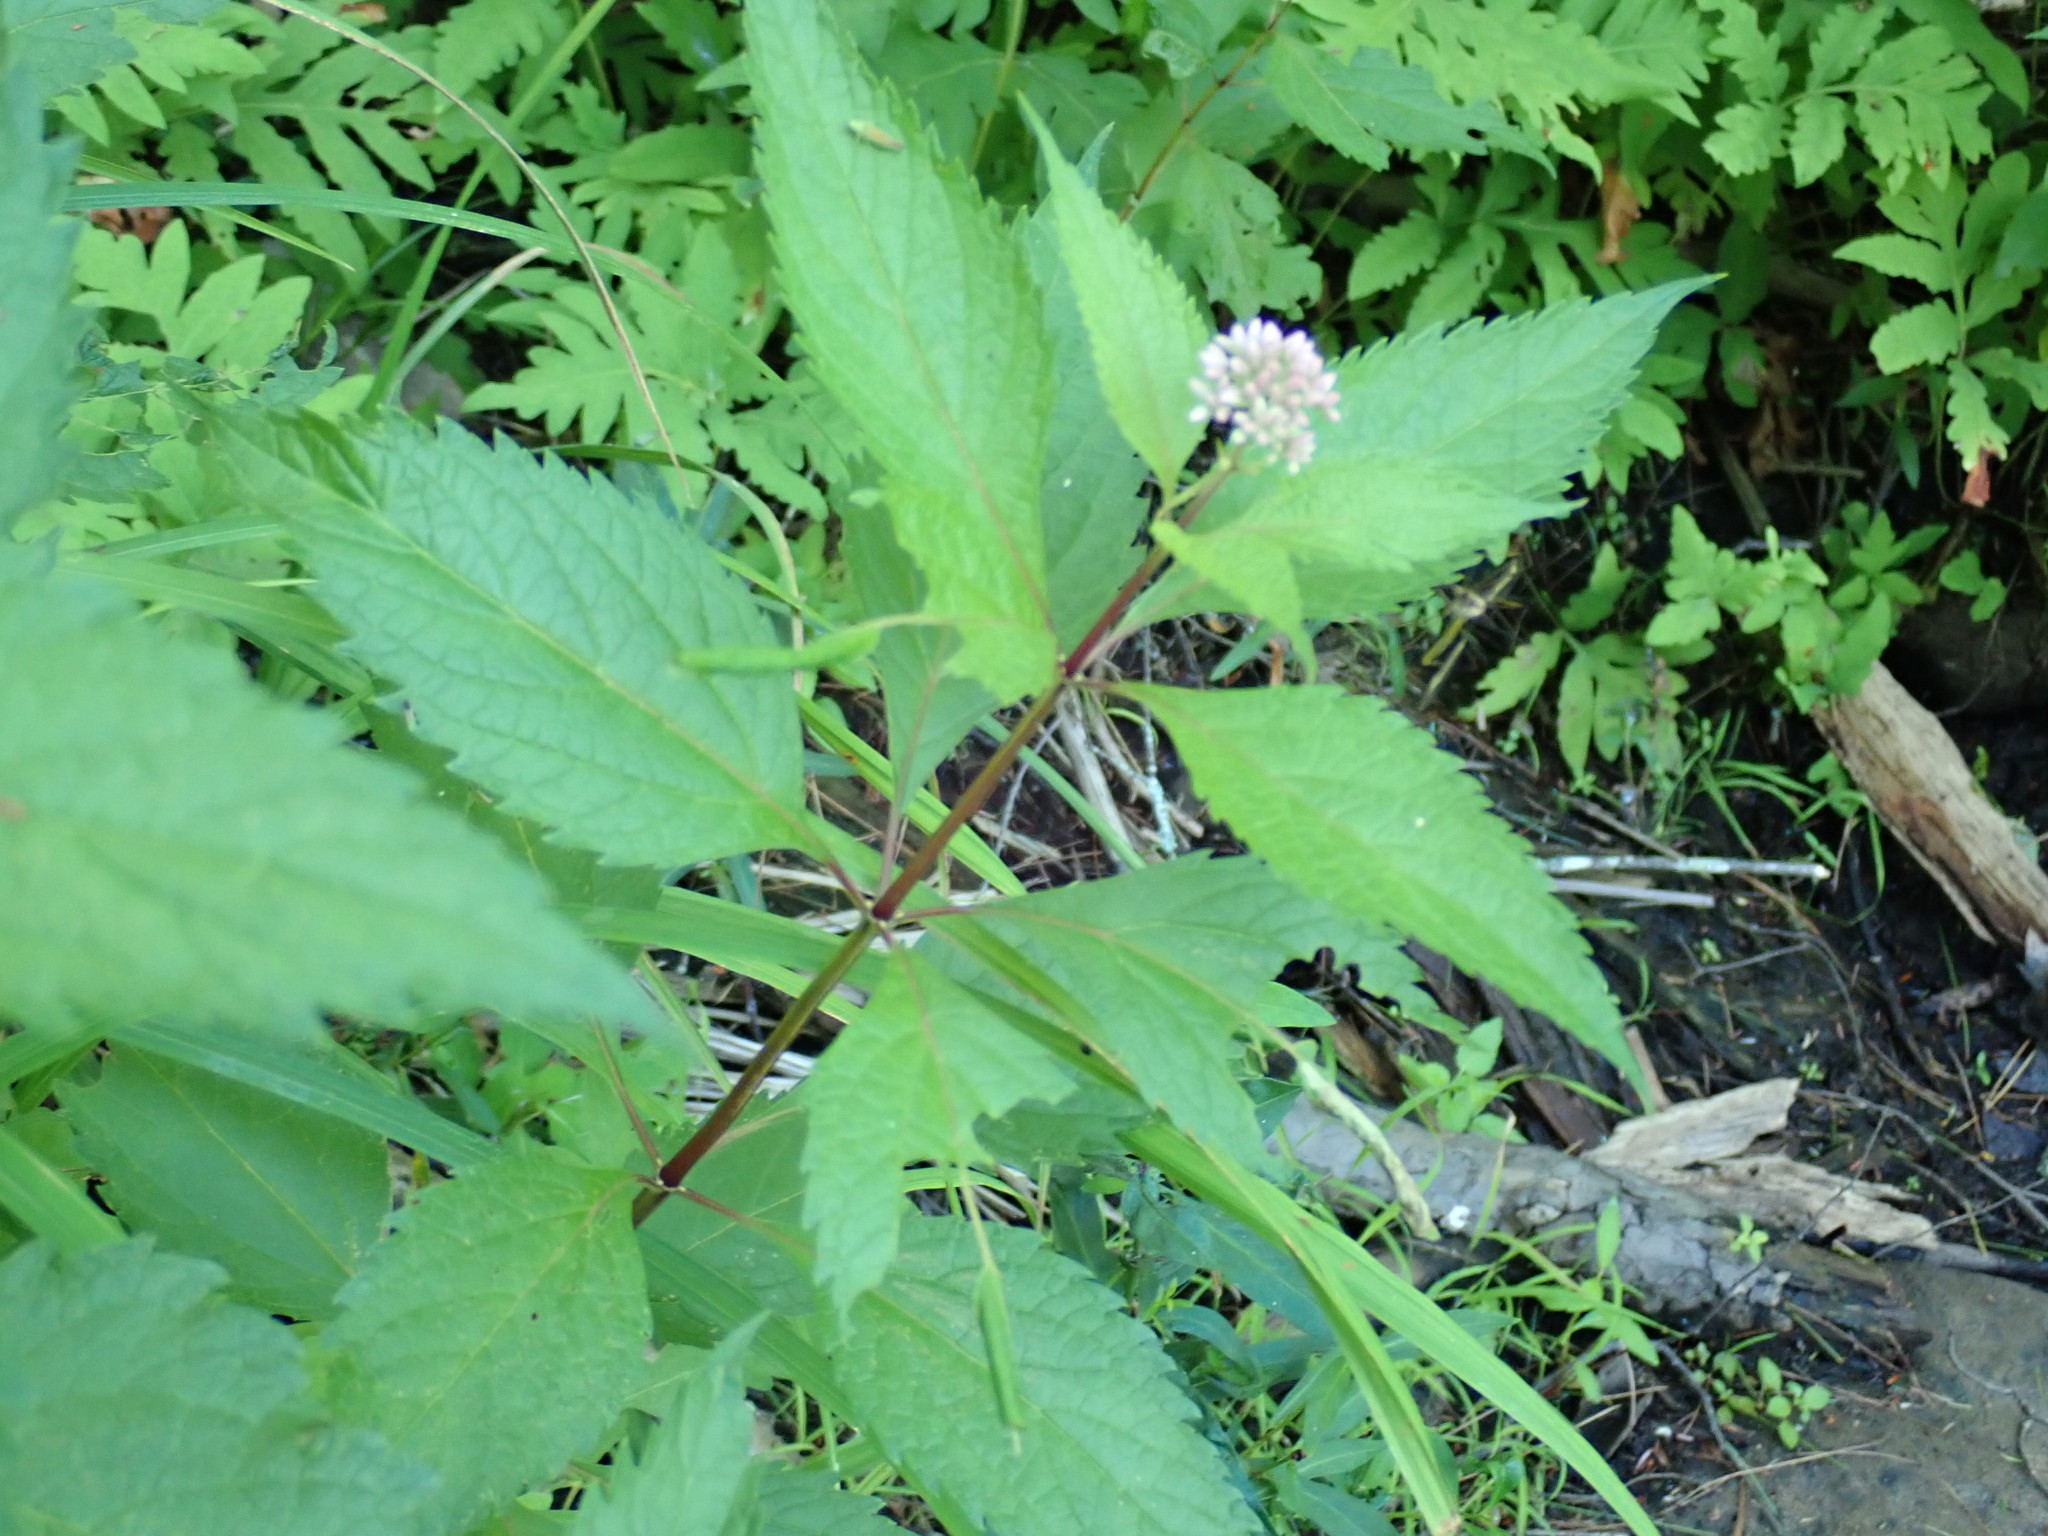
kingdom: Plantae
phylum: Tracheophyta
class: Magnoliopsida
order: Asterales
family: Asteraceae
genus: Eutrochium
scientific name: Eutrochium
